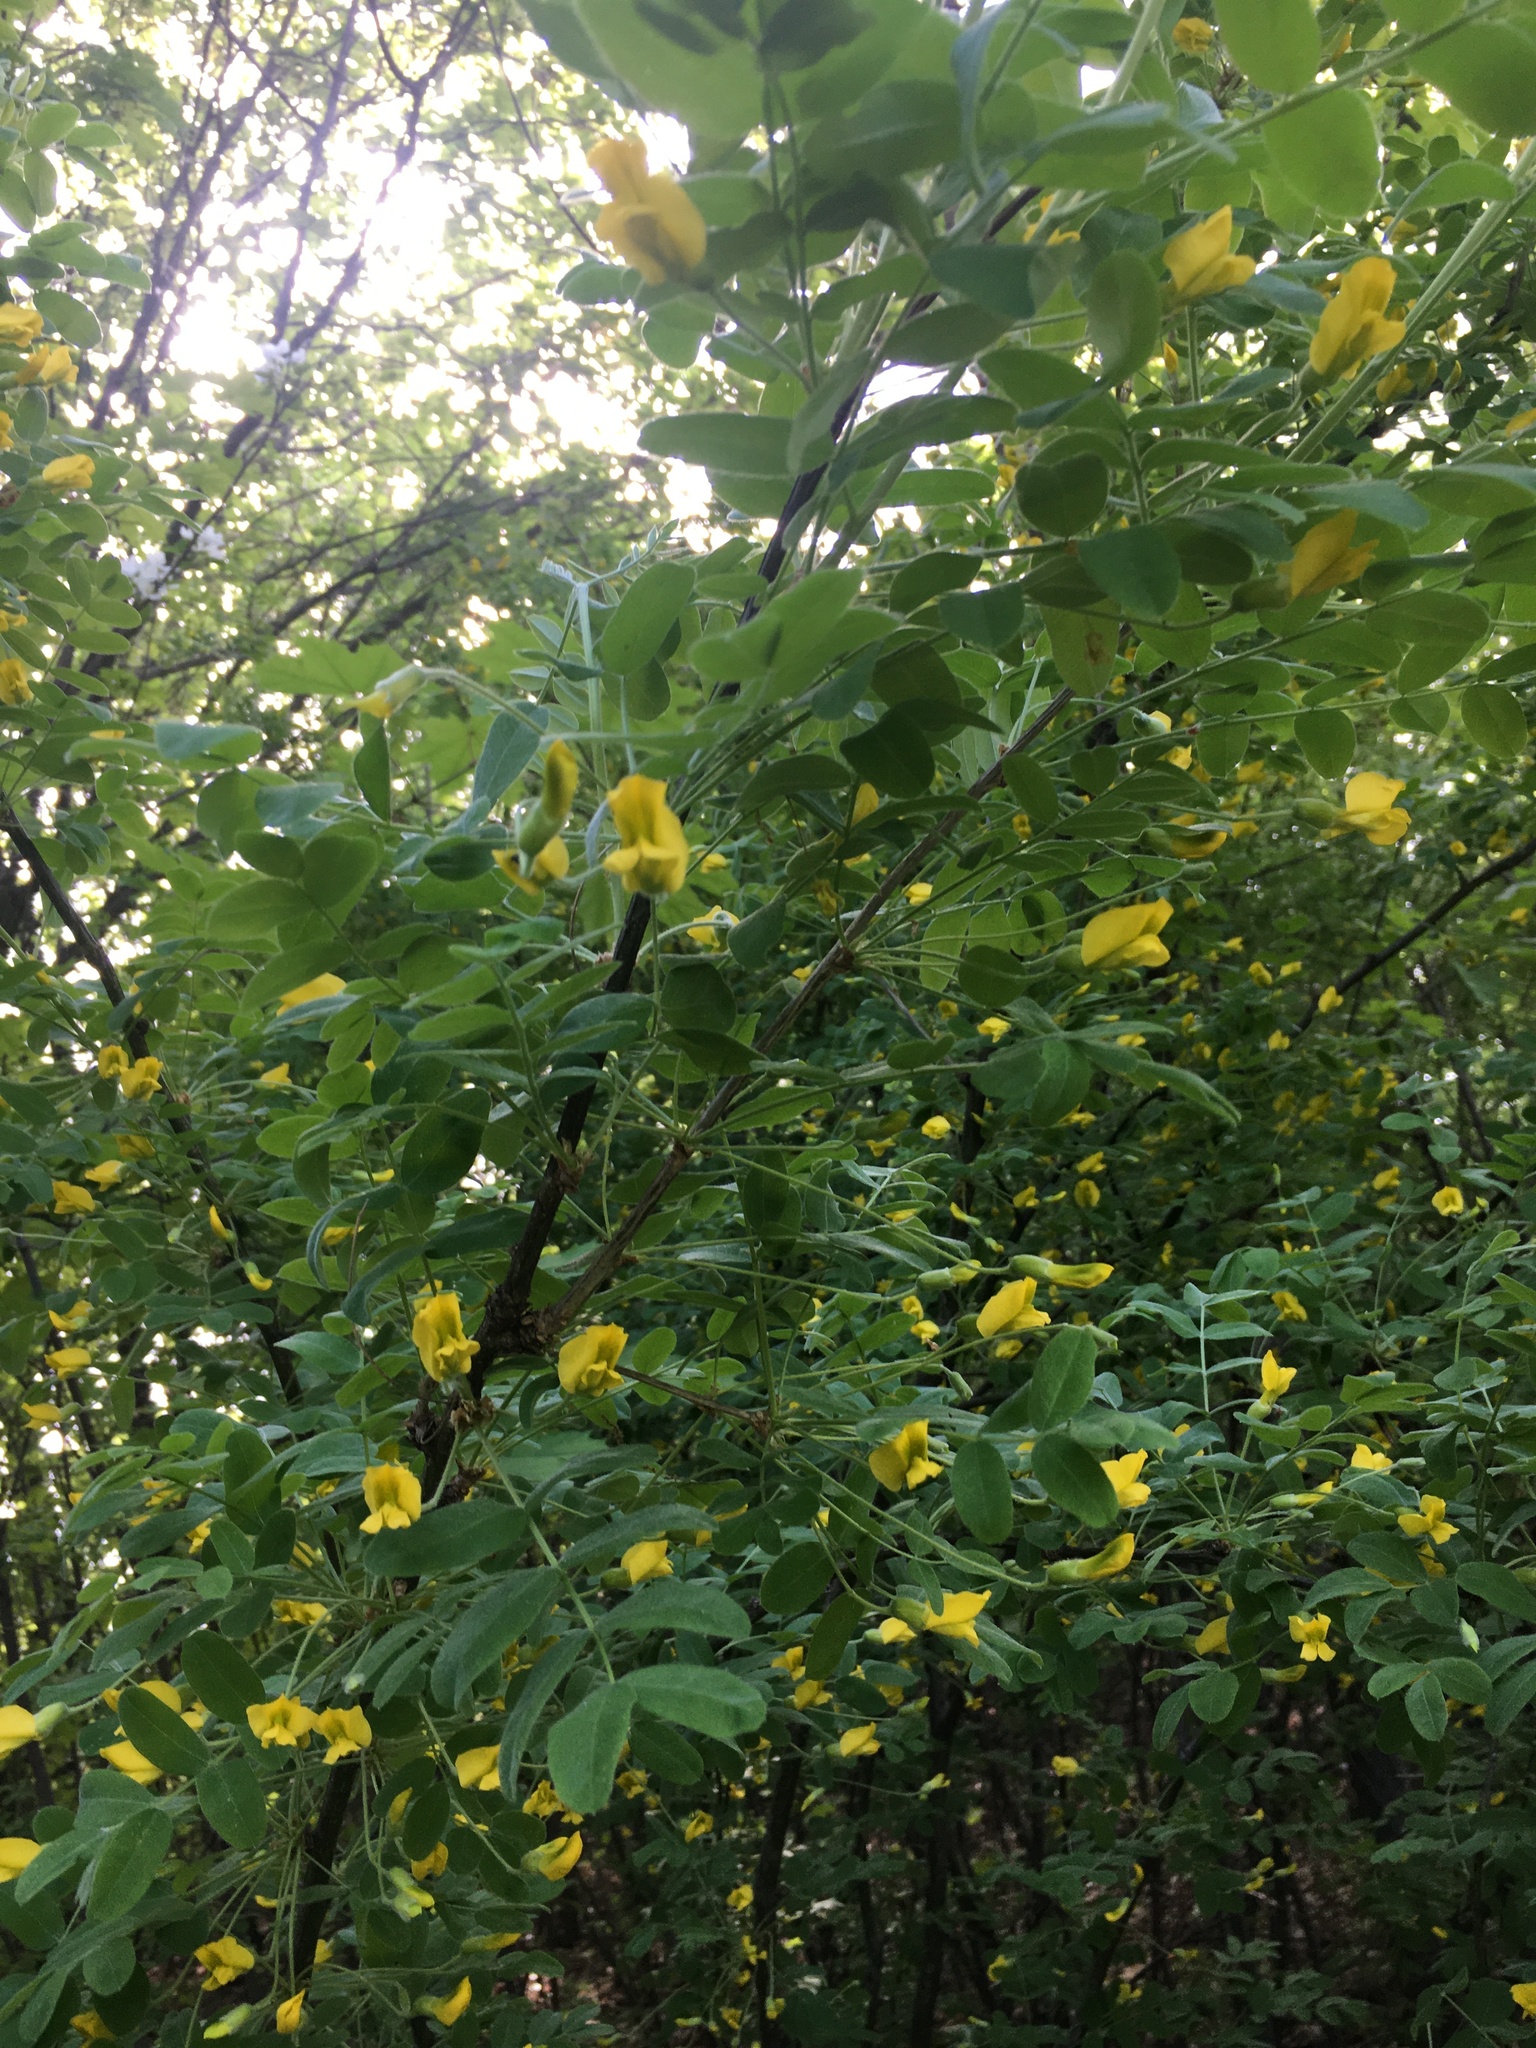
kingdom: Plantae
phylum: Tracheophyta
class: Magnoliopsida
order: Fabales
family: Fabaceae
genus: Caragana
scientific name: Caragana arborescens
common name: Siberian peashrub
